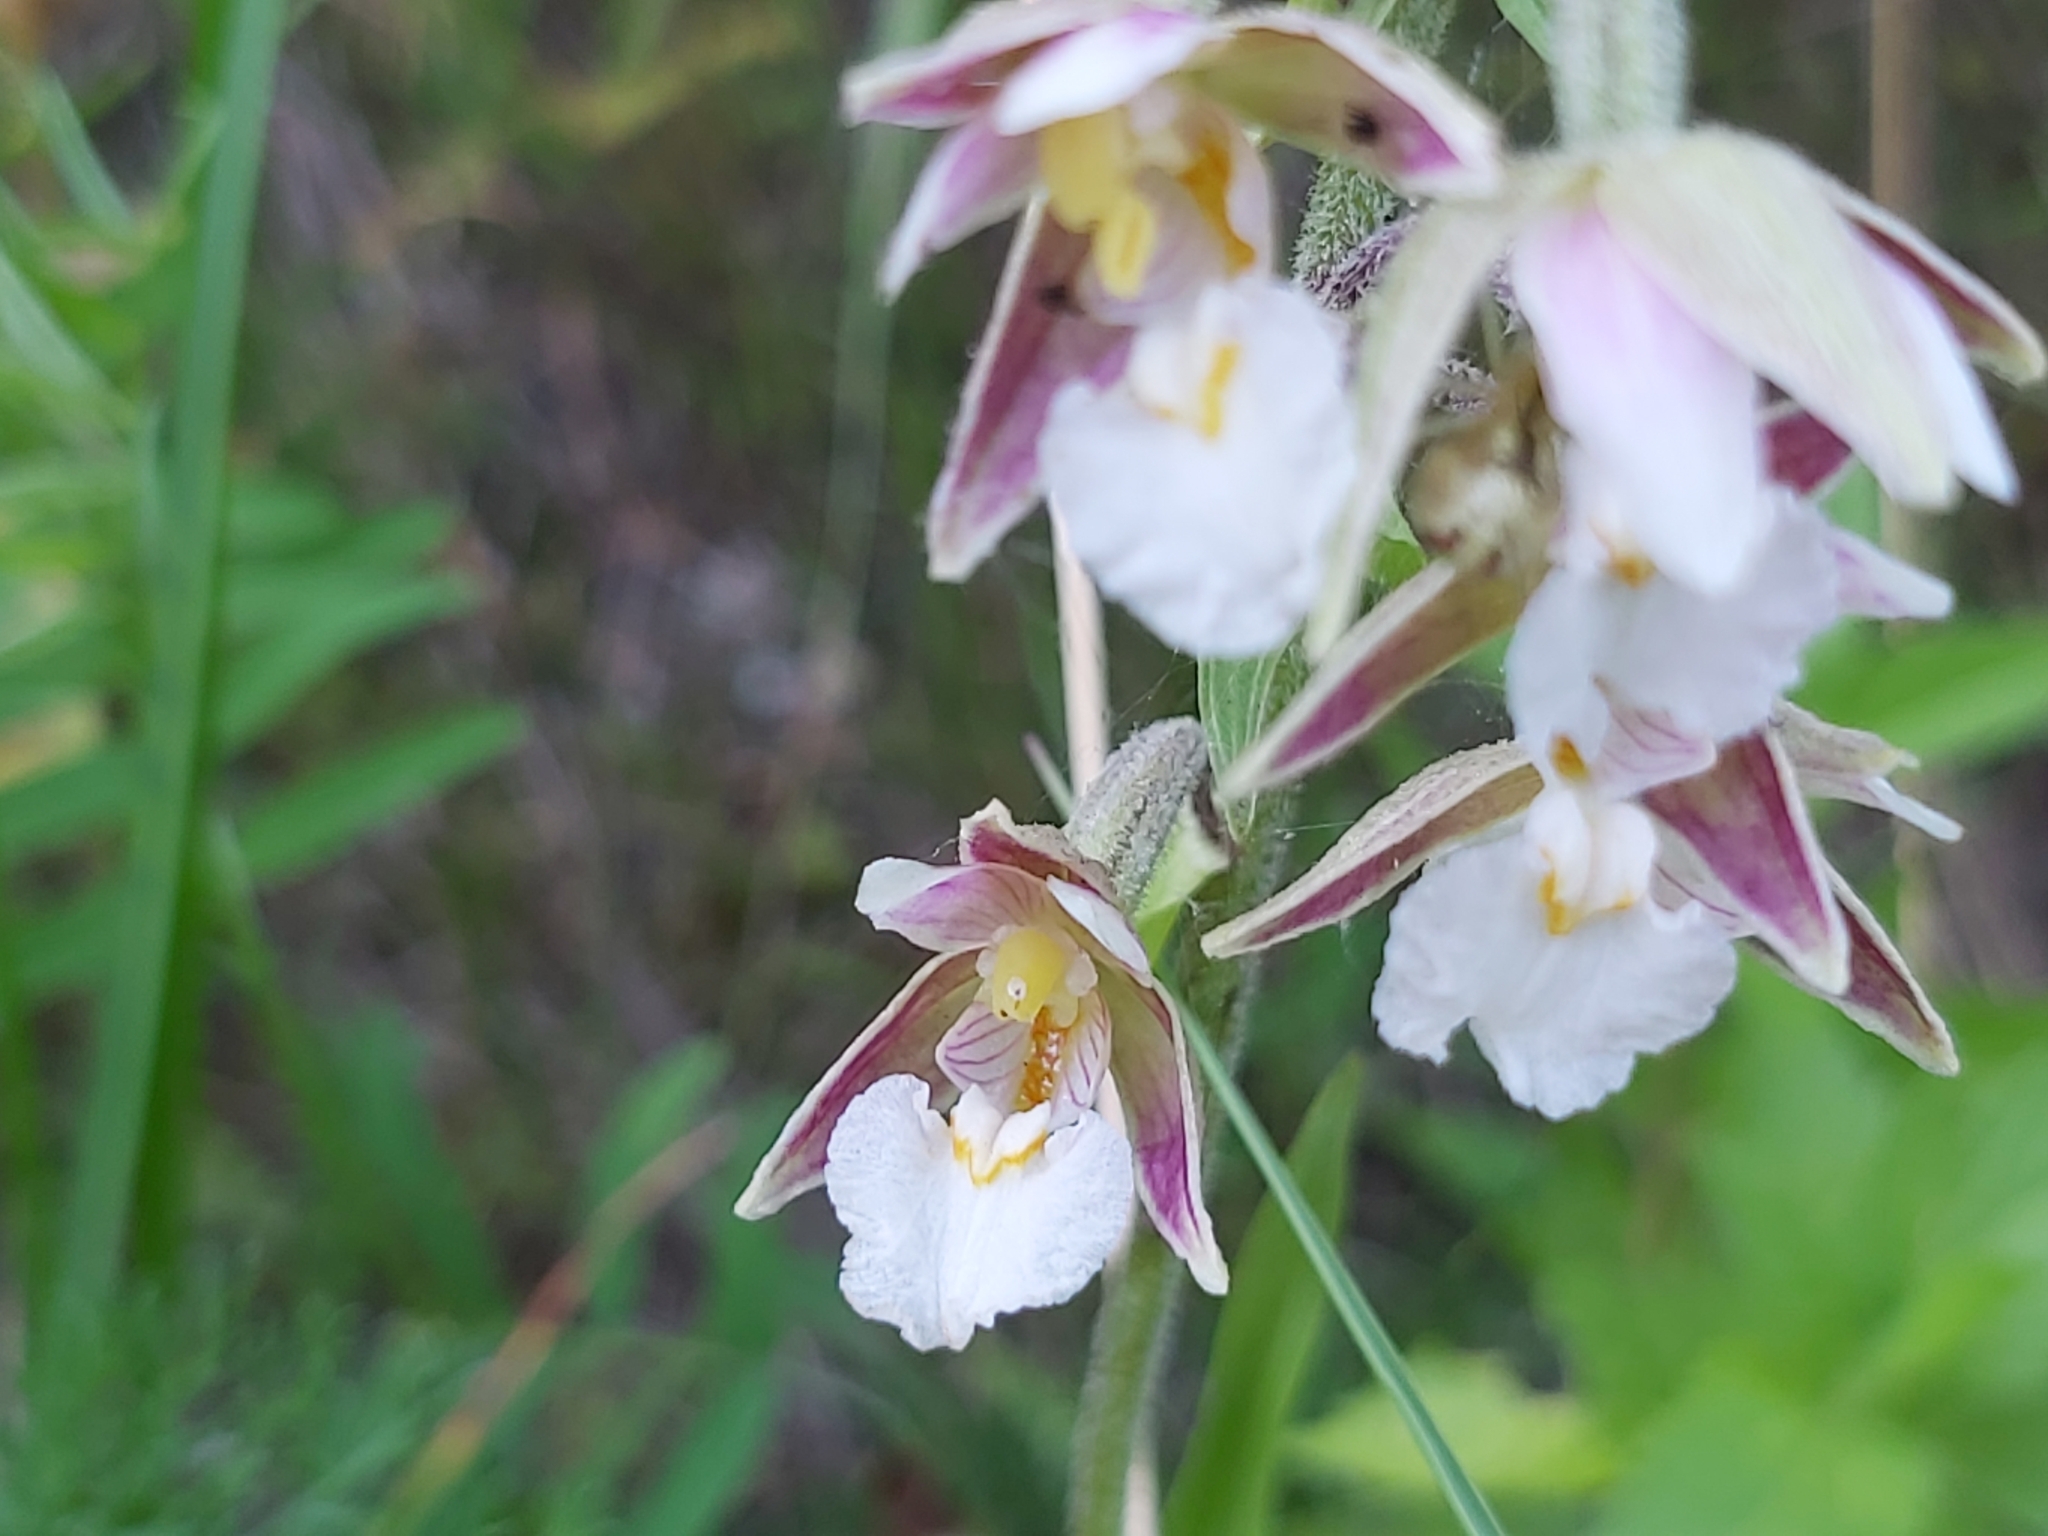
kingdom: Plantae
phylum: Tracheophyta
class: Liliopsida
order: Asparagales
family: Orchidaceae
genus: Epipactis
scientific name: Epipactis palustris
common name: Marsh helleborine
